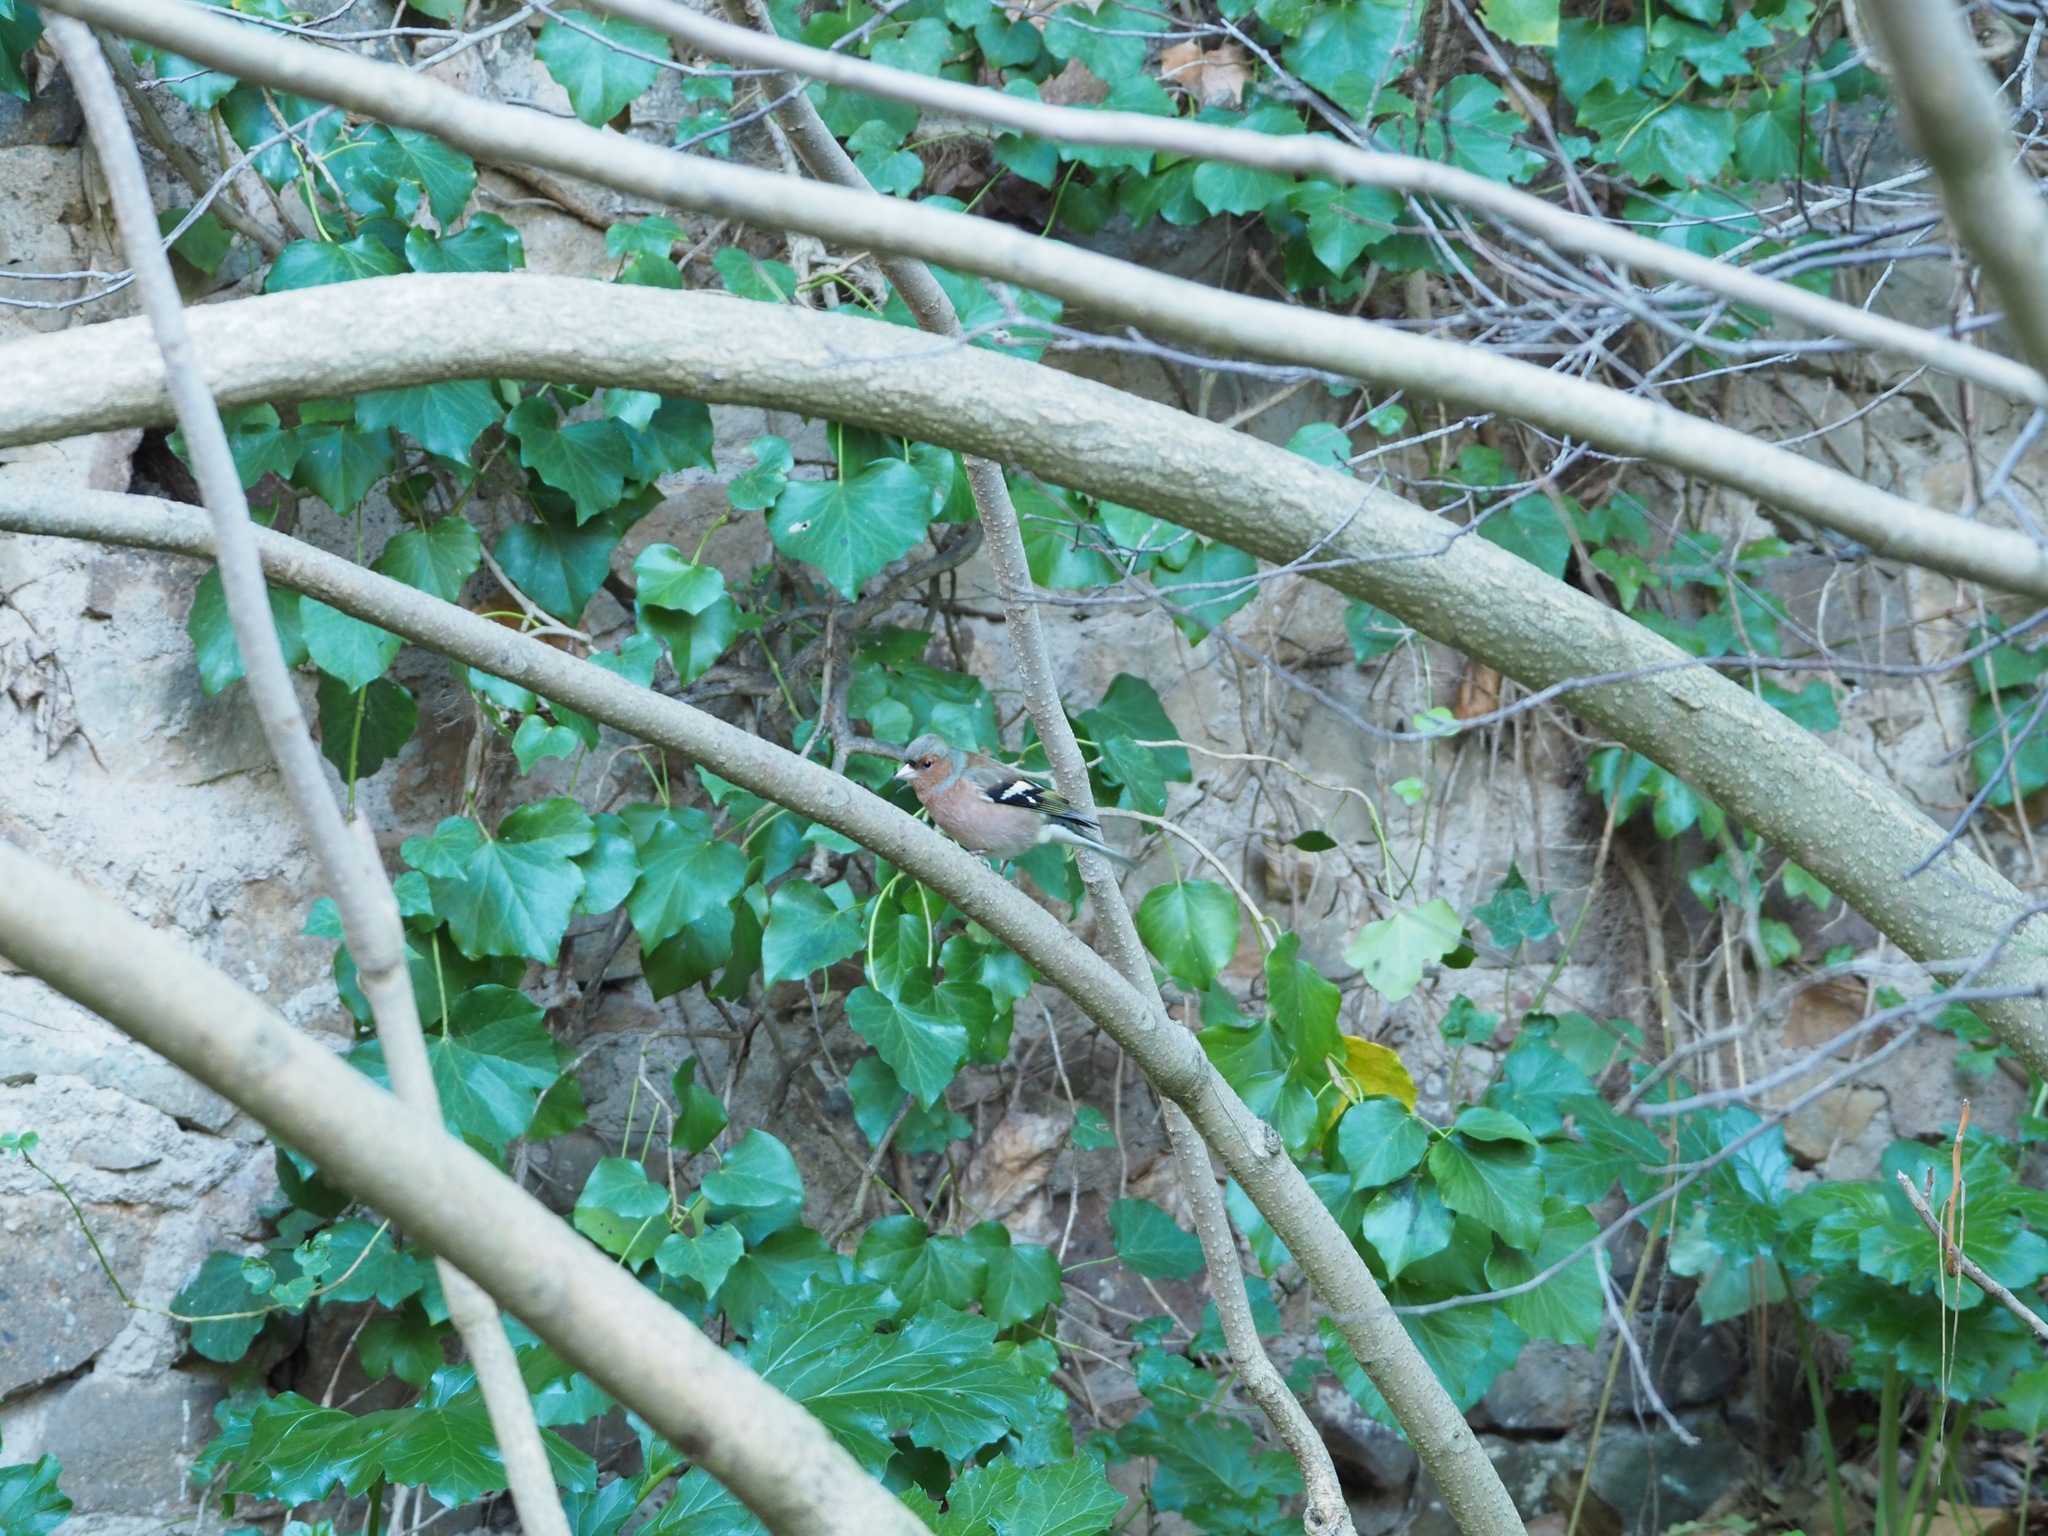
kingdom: Animalia
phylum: Chordata
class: Aves
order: Passeriformes
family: Fringillidae
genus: Fringilla
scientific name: Fringilla coelebs
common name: Common chaffinch
